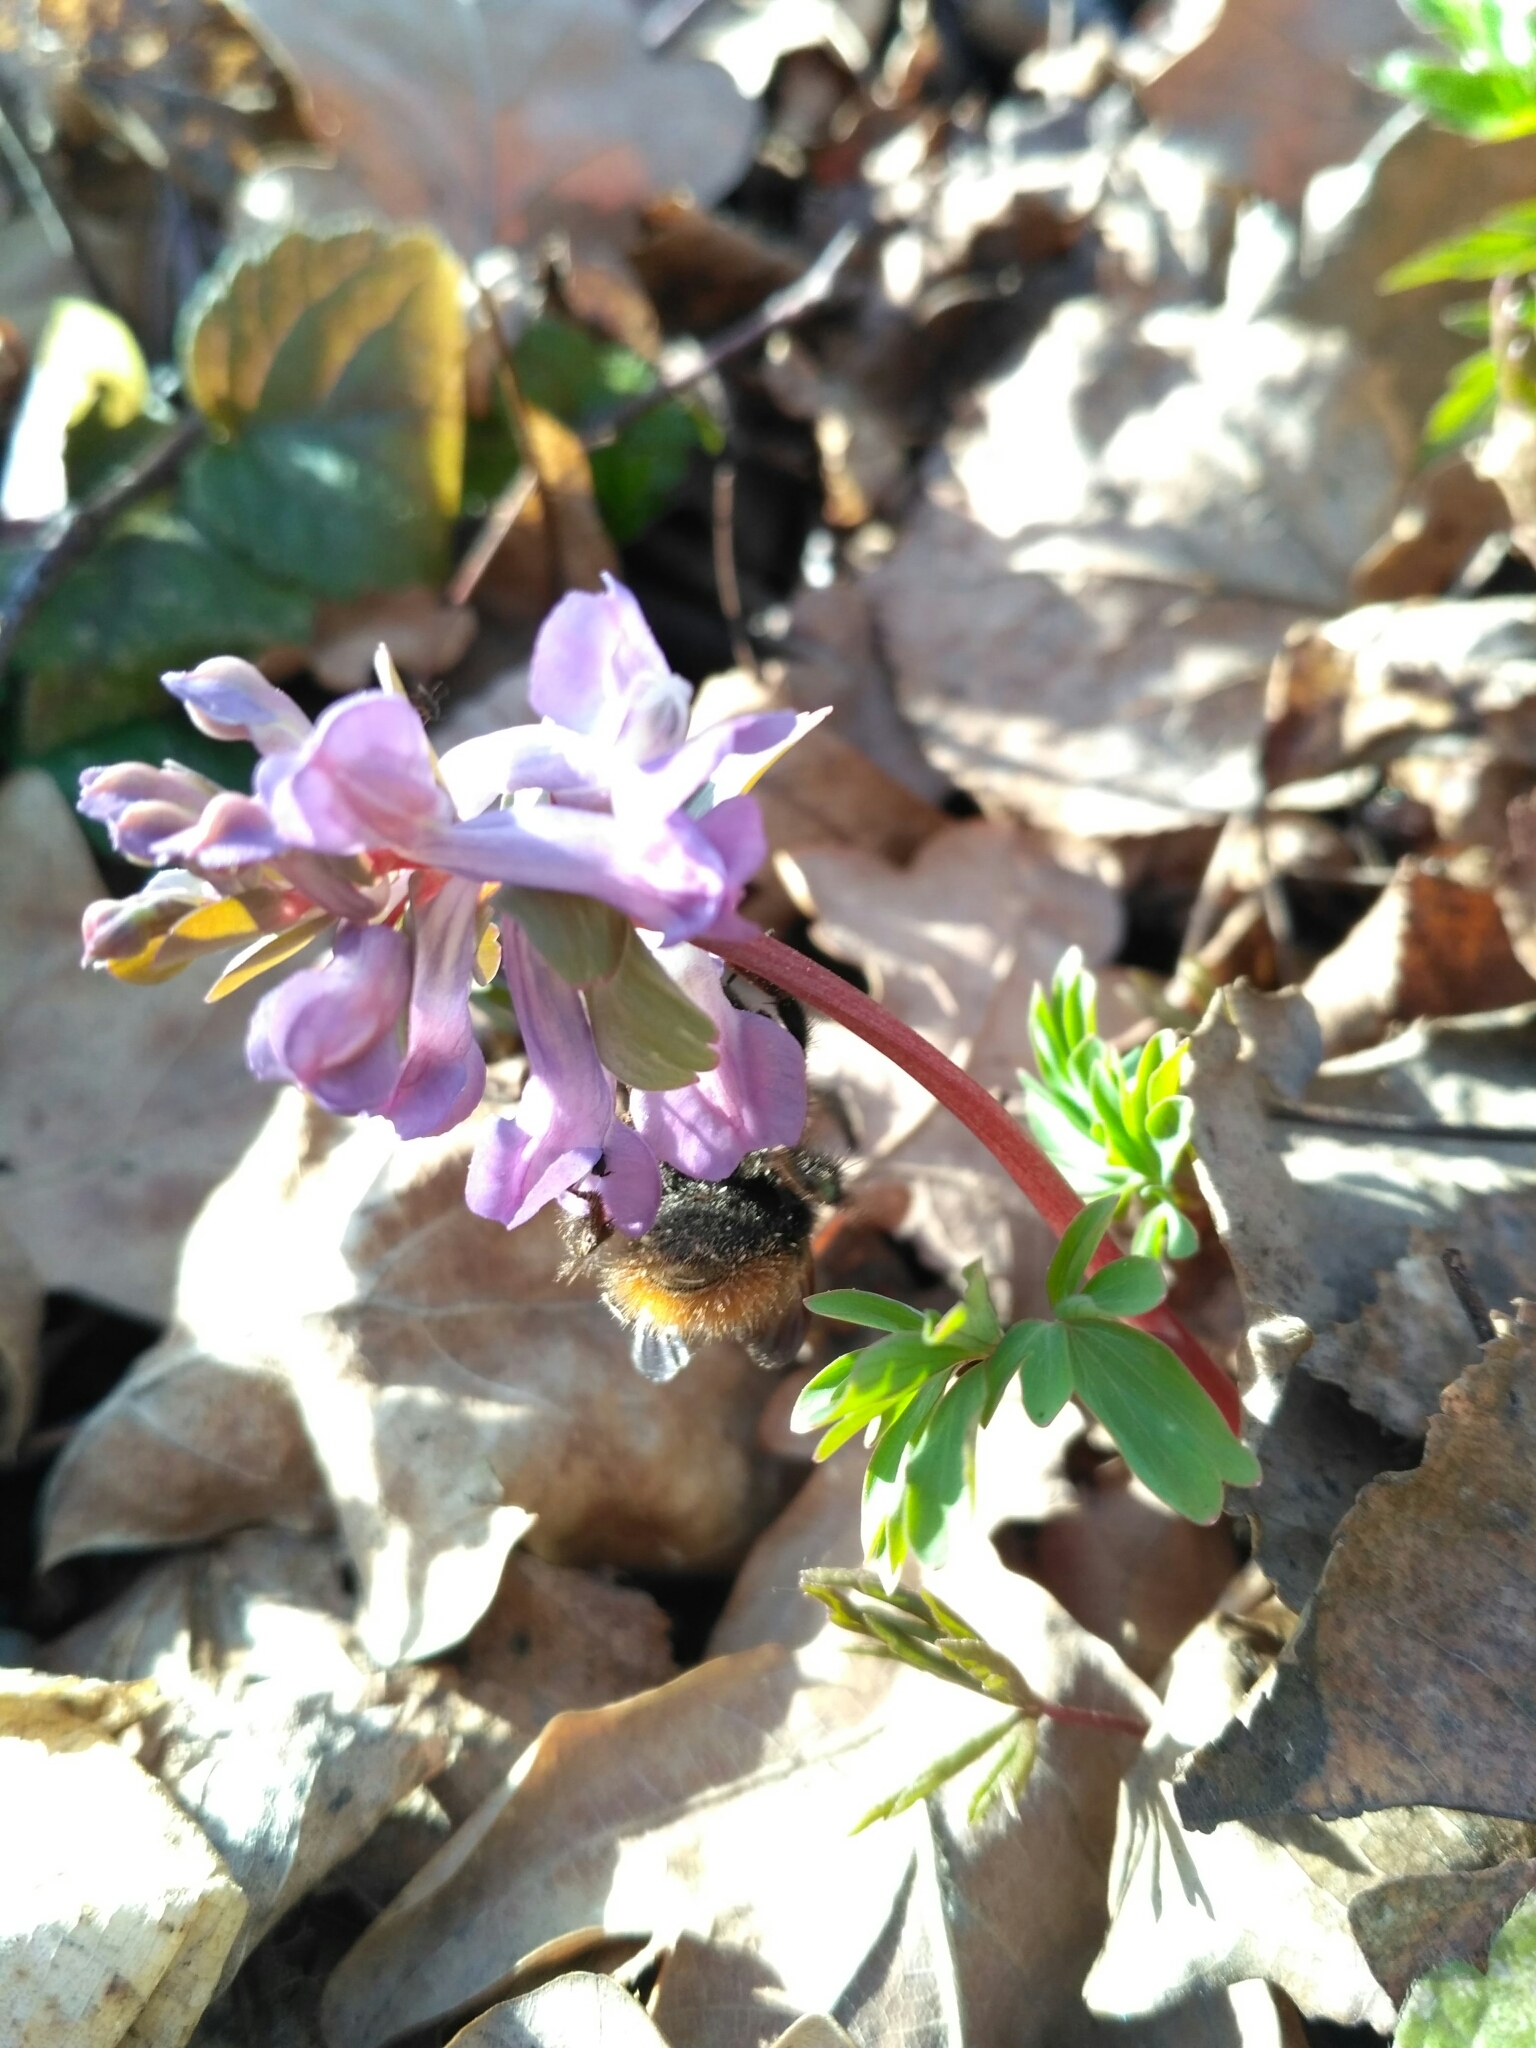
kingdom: Plantae
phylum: Tracheophyta
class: Magnoliopsida
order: Ranunculales
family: Papaveraceae
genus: Corydalis
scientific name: Corydalis solida
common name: Bird-in-a-bush
